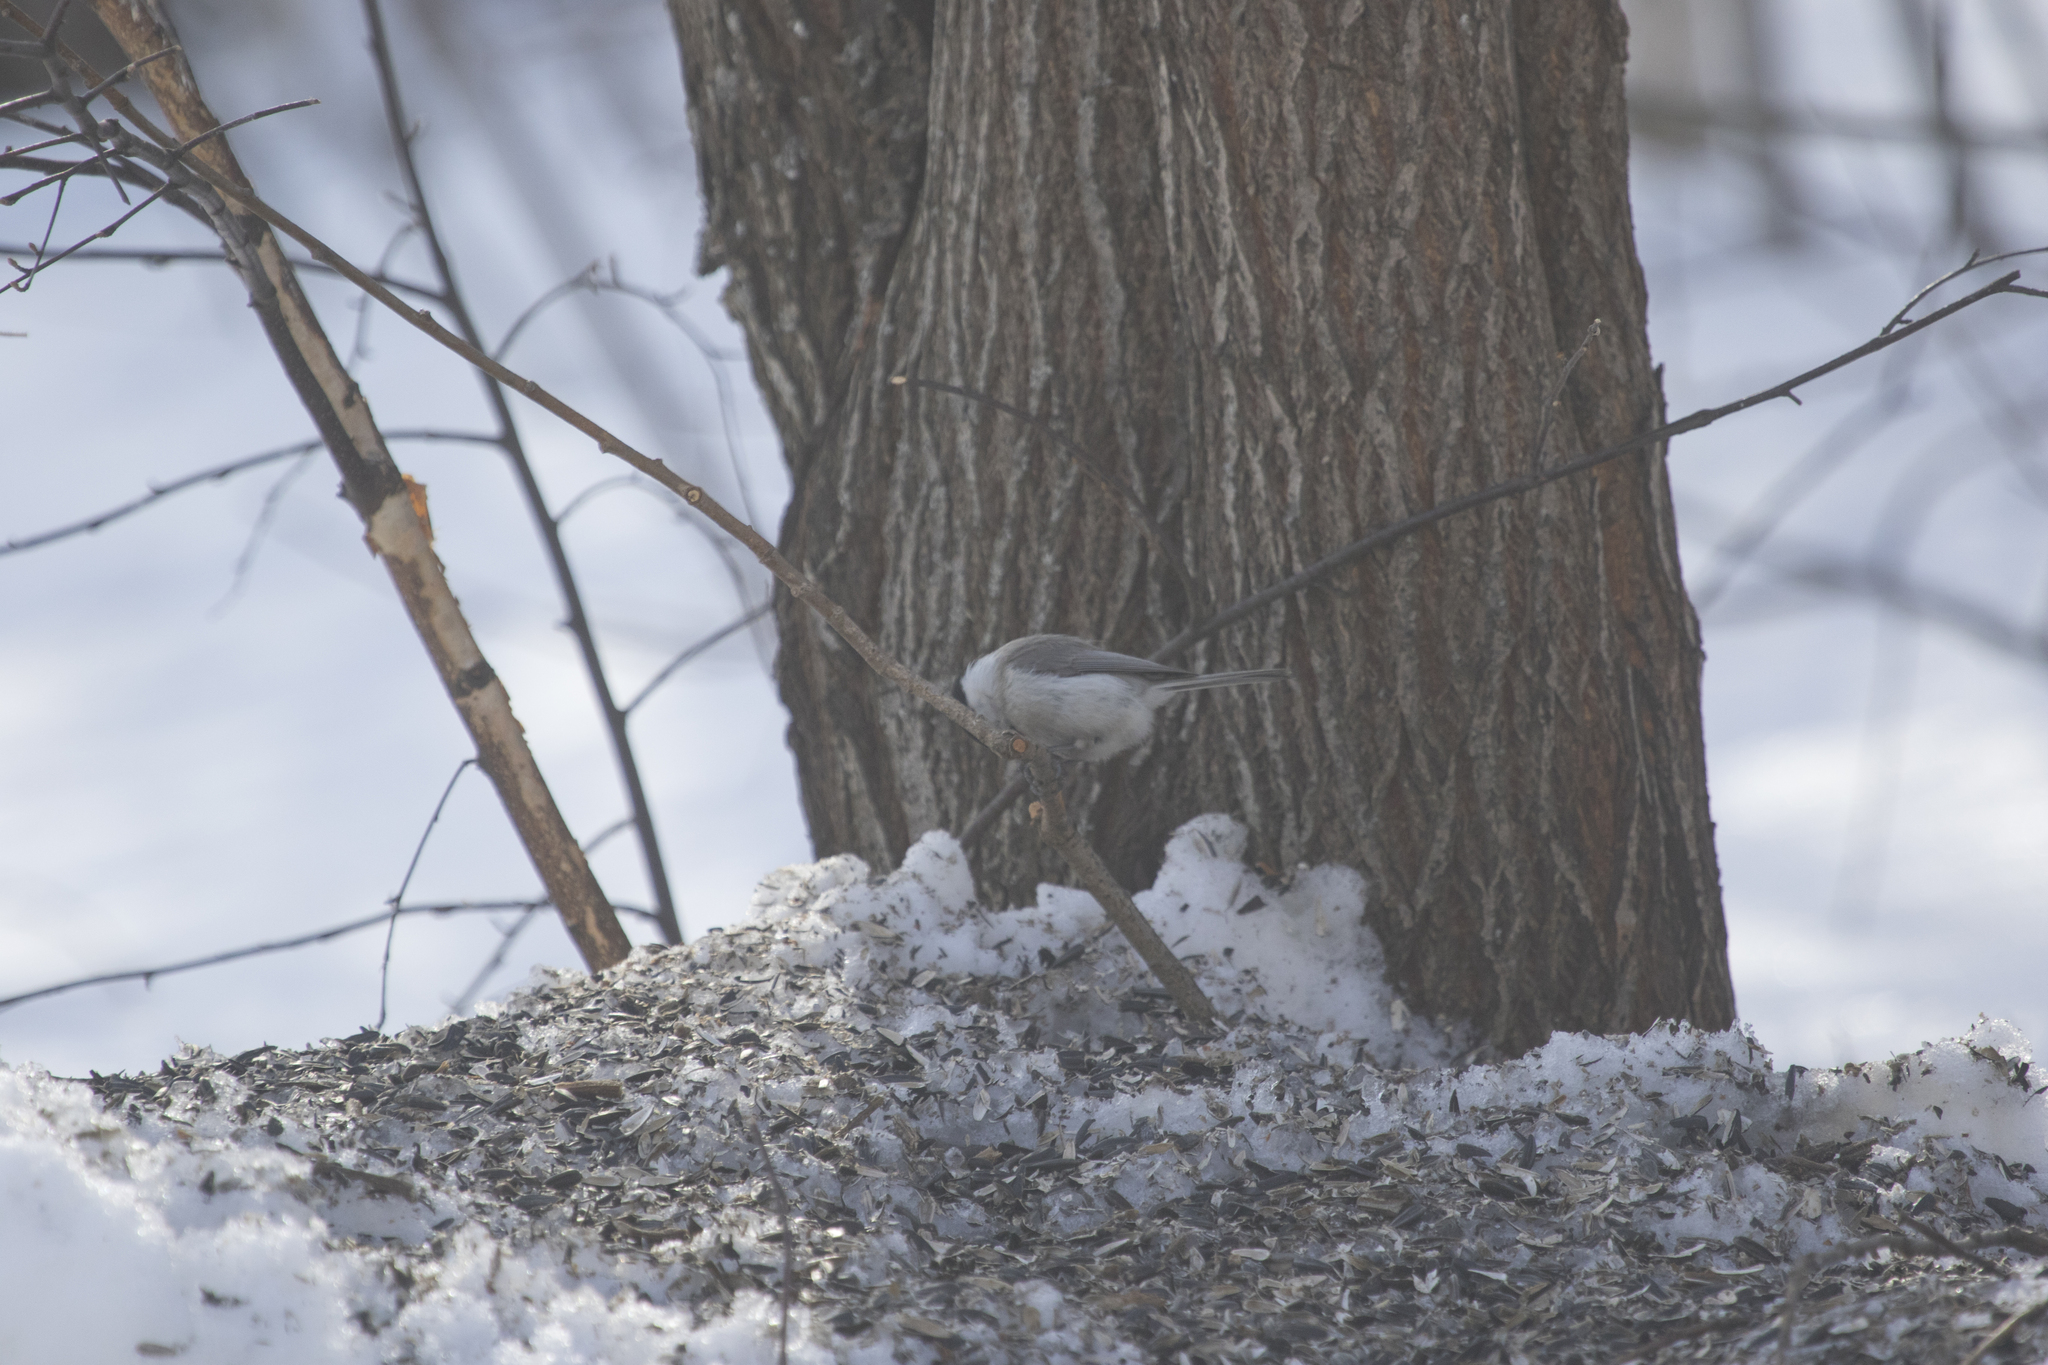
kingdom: Animalia
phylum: Chordata
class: Aves
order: Passeriformes
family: Paridae
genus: Poecile
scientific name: Poecile palustris
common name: Marsh tit
